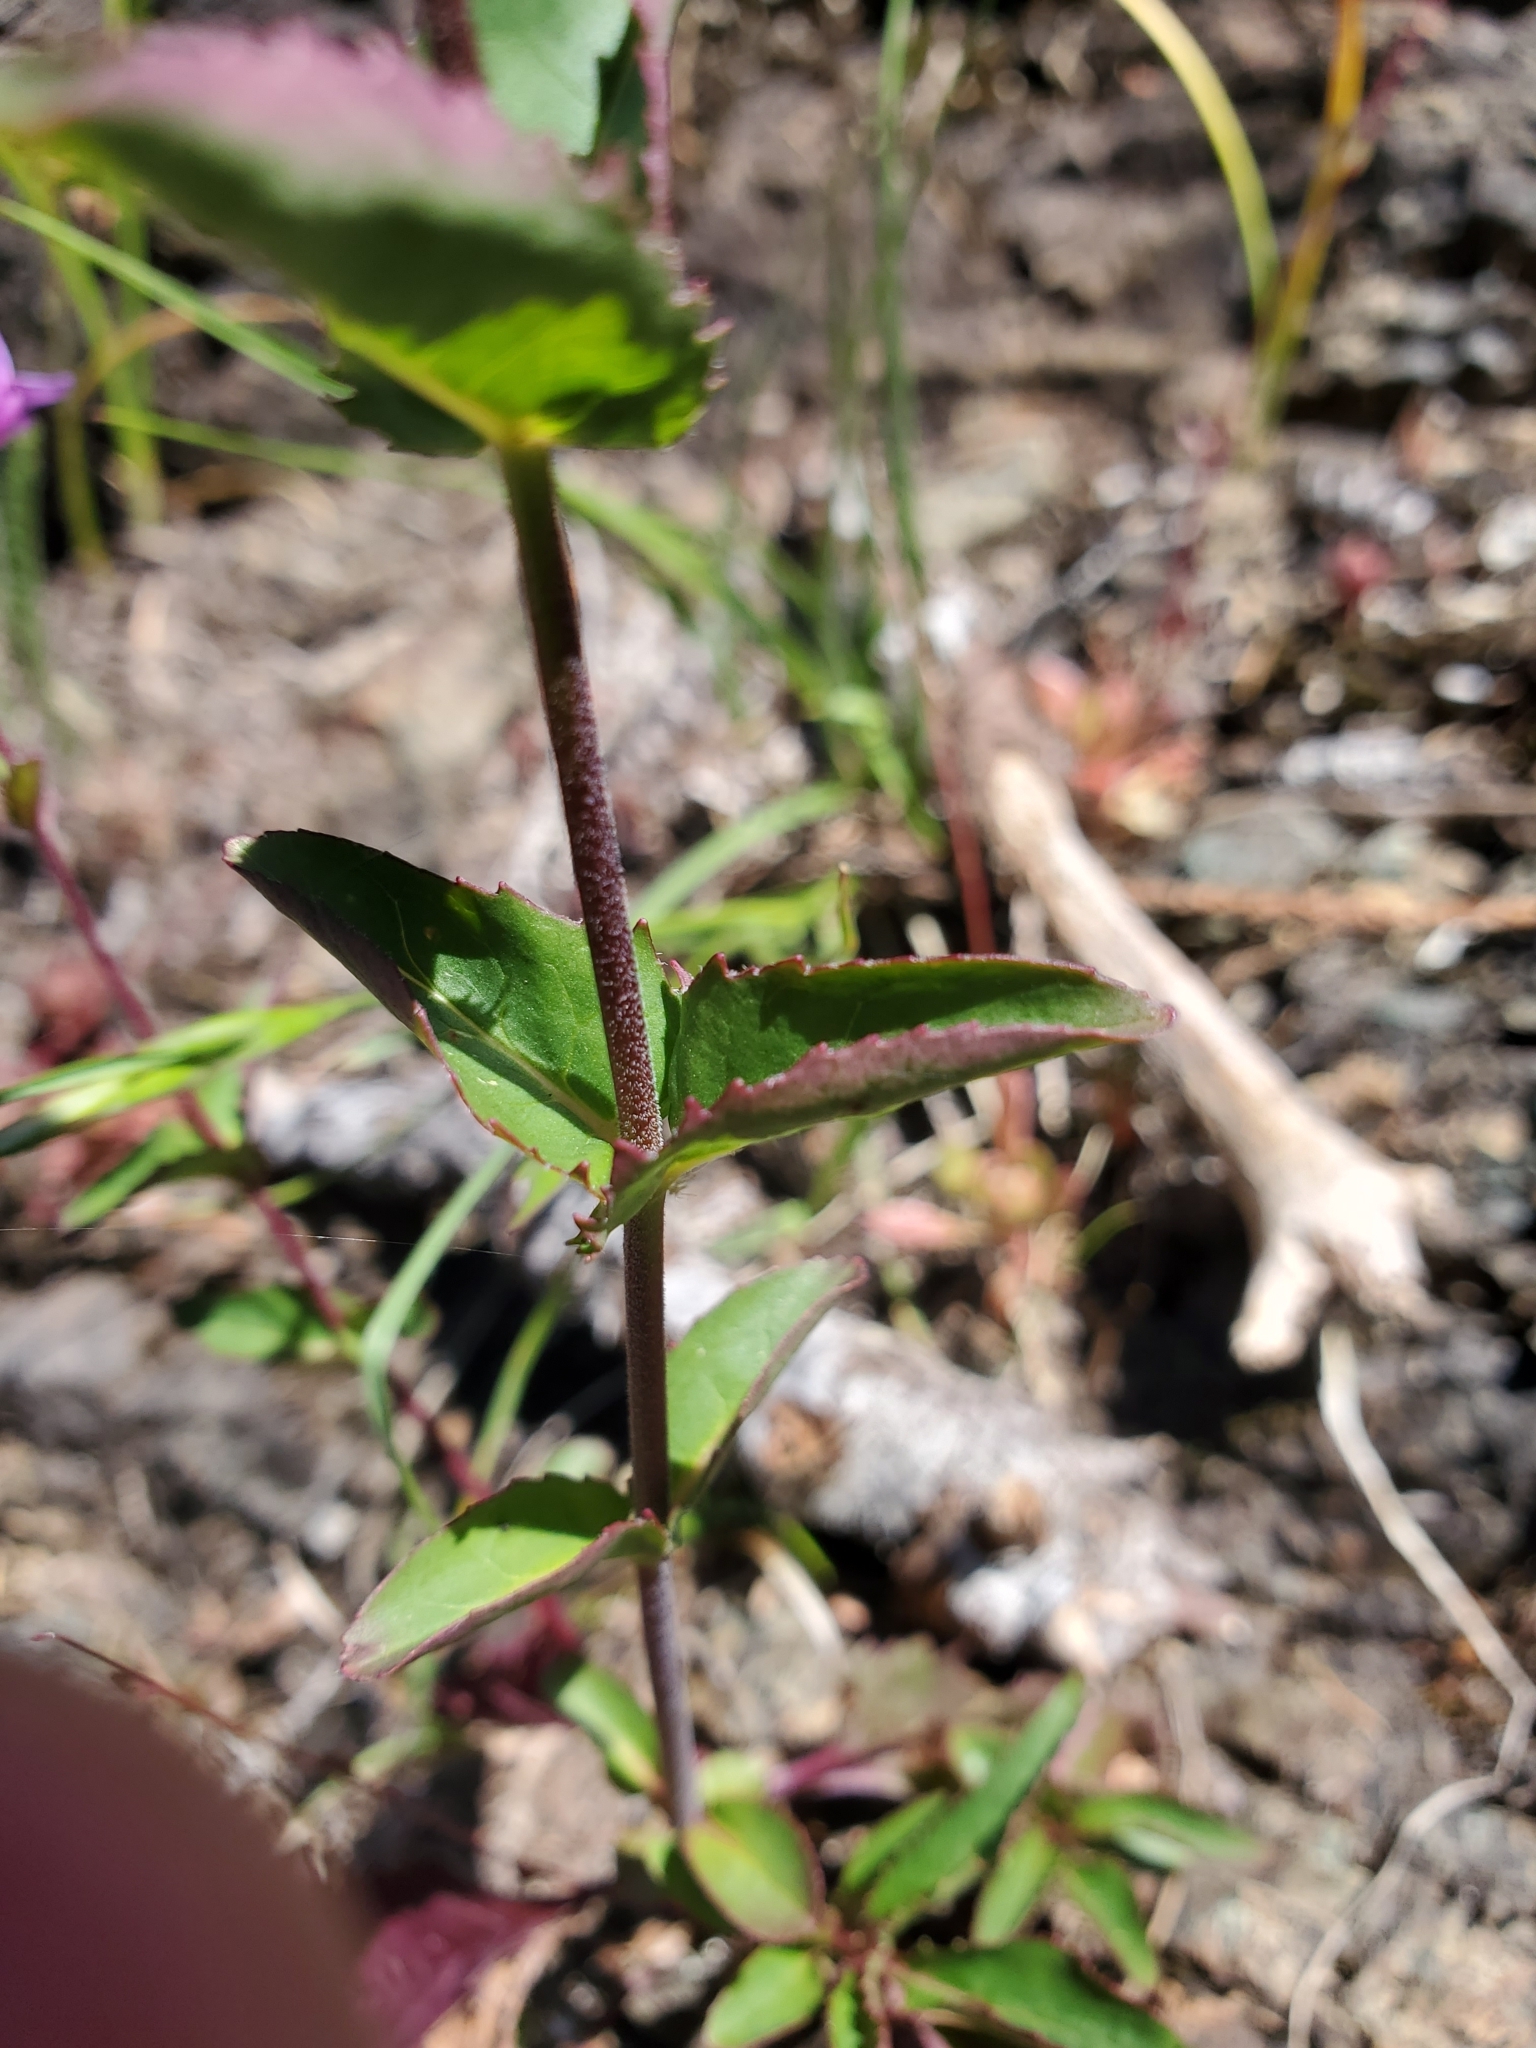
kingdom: Plantae
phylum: Tracheophyta
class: Magnoliopsida
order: Lamiales
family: Plantaginaceae
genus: Penstemon
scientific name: Penstemon serrulatus
